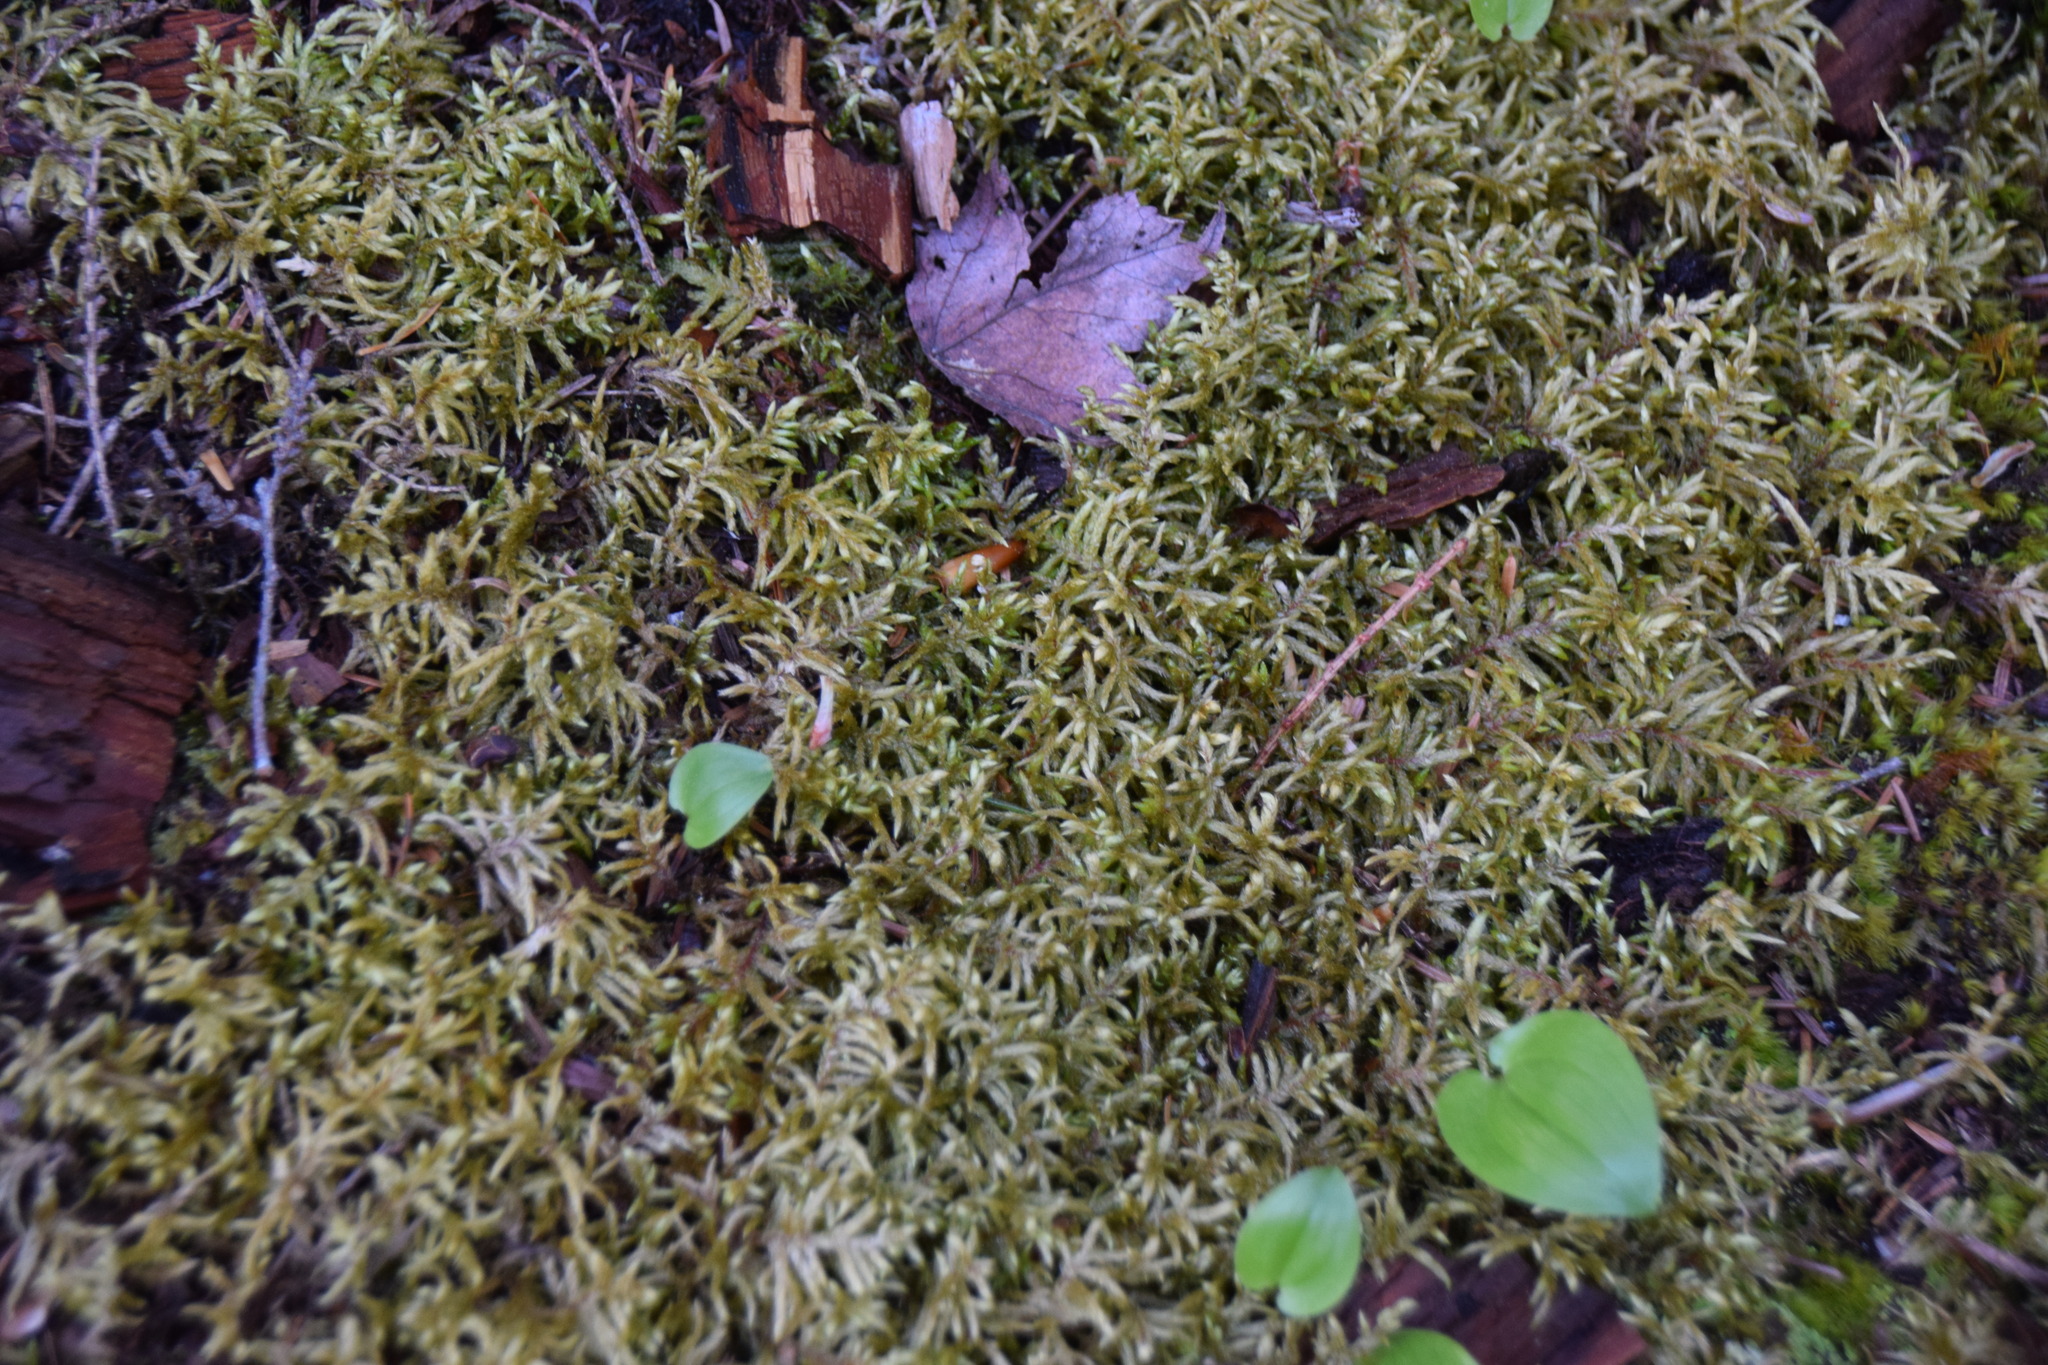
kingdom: Plantae
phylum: Bryophyta
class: Bryopsida
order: Hypnales
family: Hylocomiaceae
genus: Pleurozium
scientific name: Pleurozium schreberi
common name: Red-stemmed feather moss
